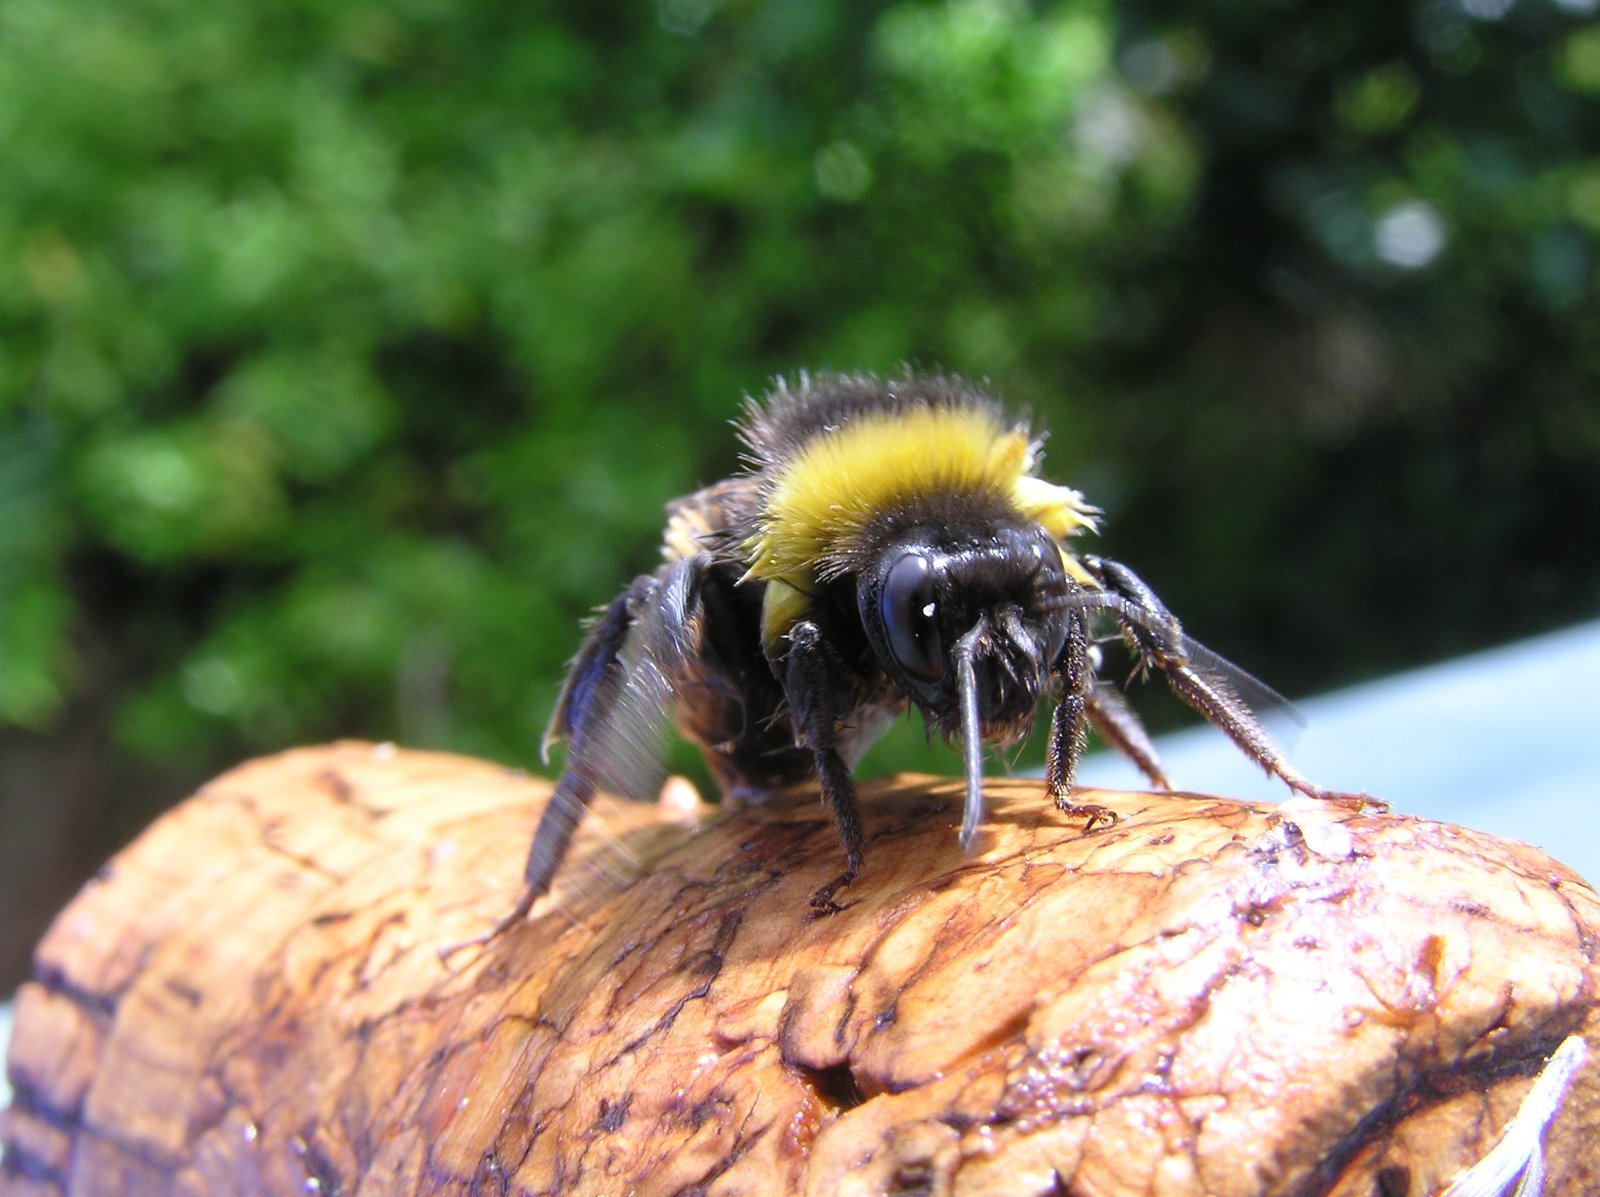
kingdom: Animalia
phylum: Arthropoda
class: Insecta
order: Hymenoptera
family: Apidae
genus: Bombus
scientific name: Bombus terrestris
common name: Buff-tailed bumblebee
